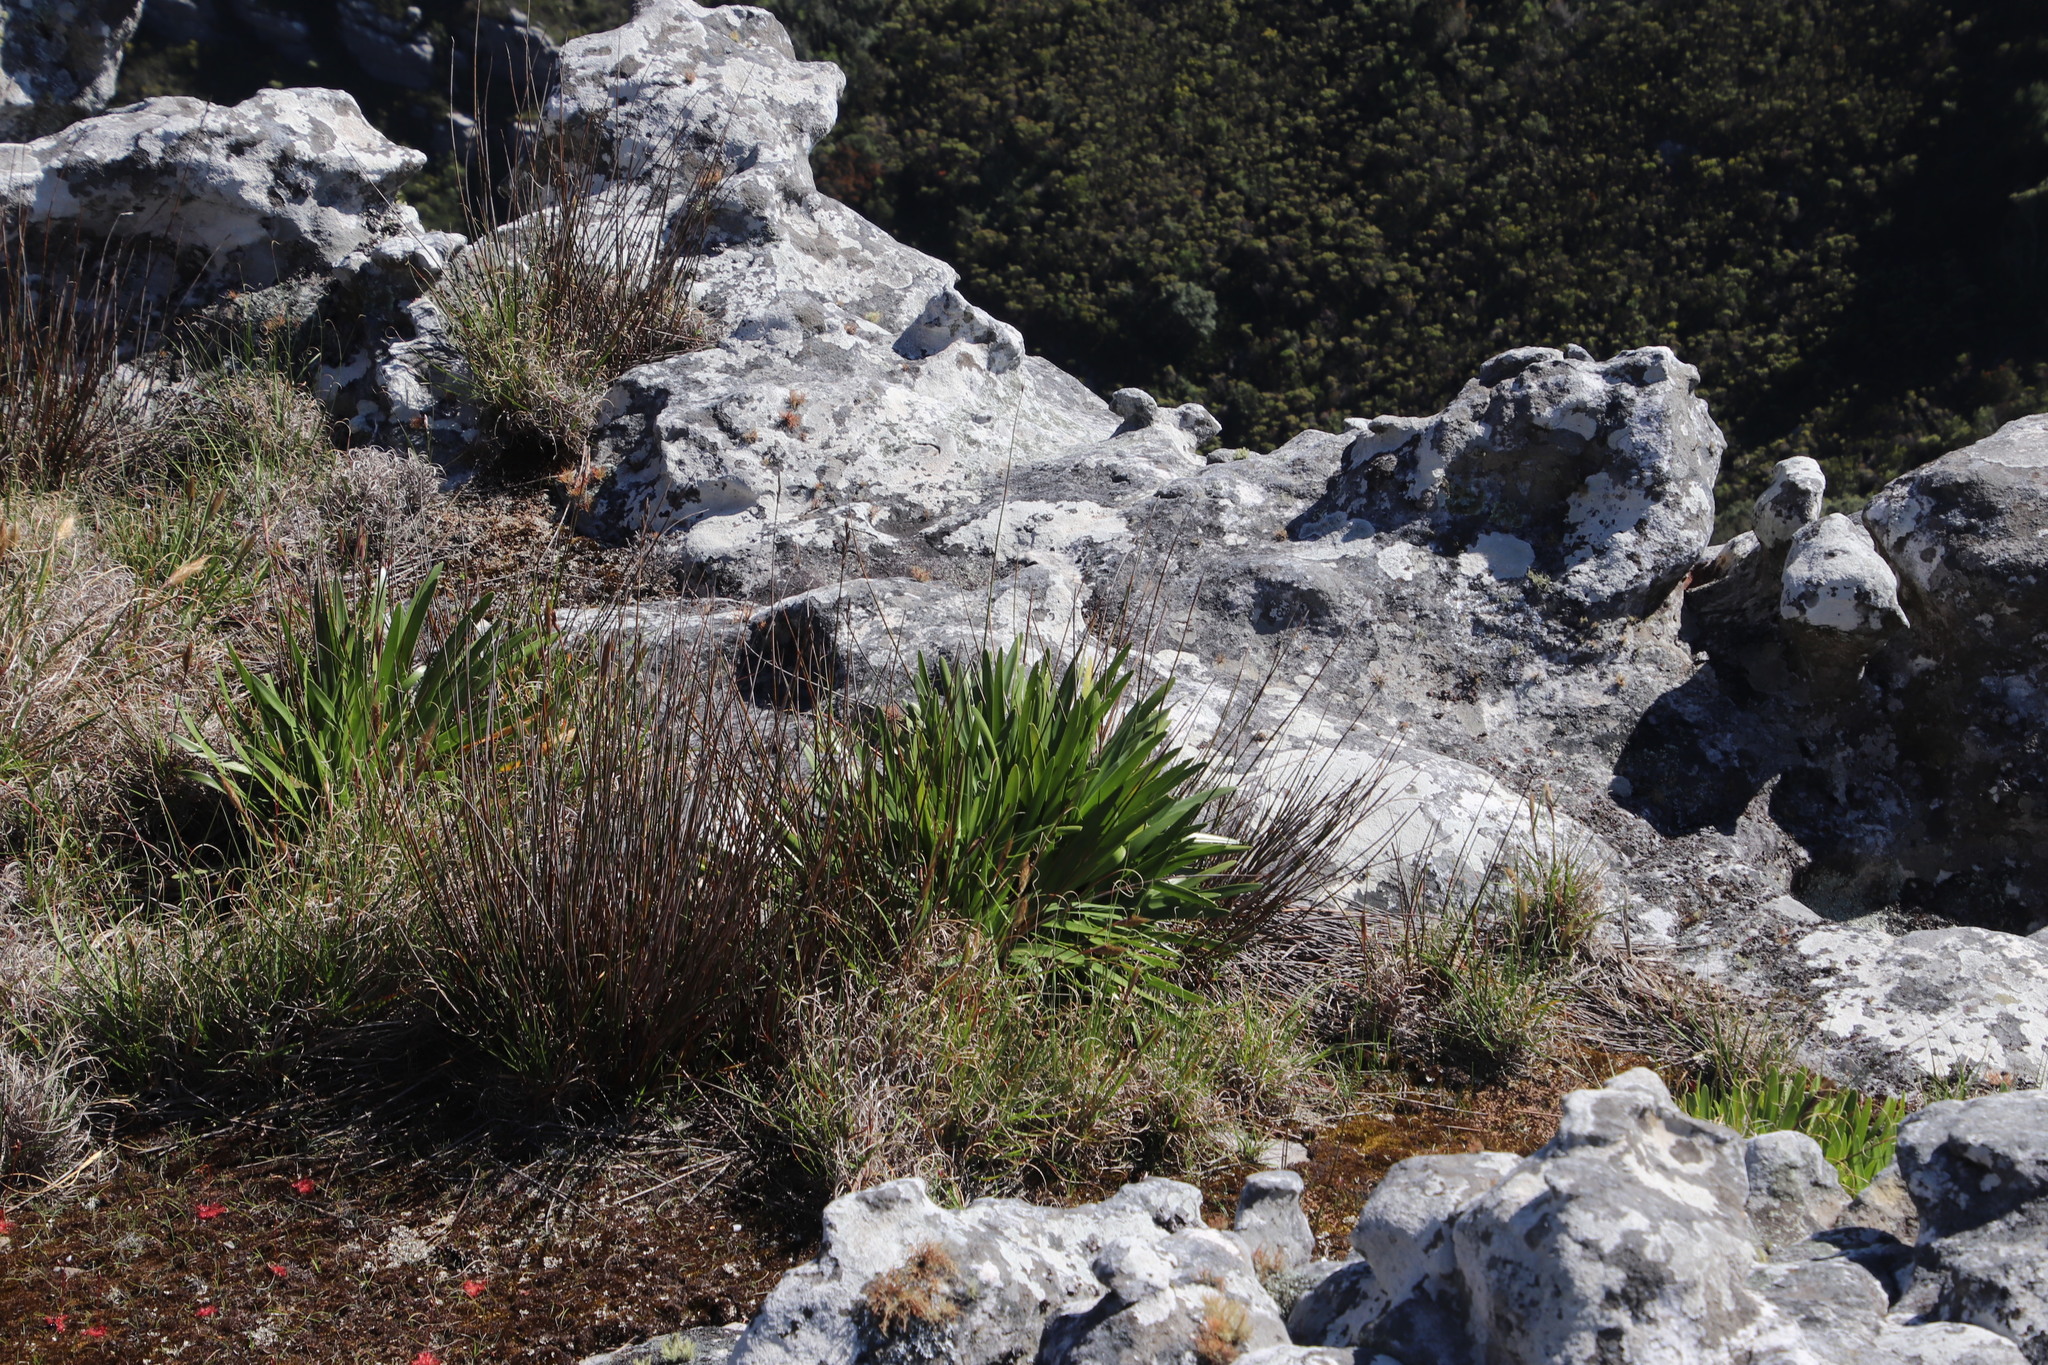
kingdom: Plantae
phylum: Tracheophyta
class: Liliopsida
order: Asparagales
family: Amaryllidaceae
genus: Agapanthus
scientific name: Agapanthus africanus
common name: Lily-of-the-nile
